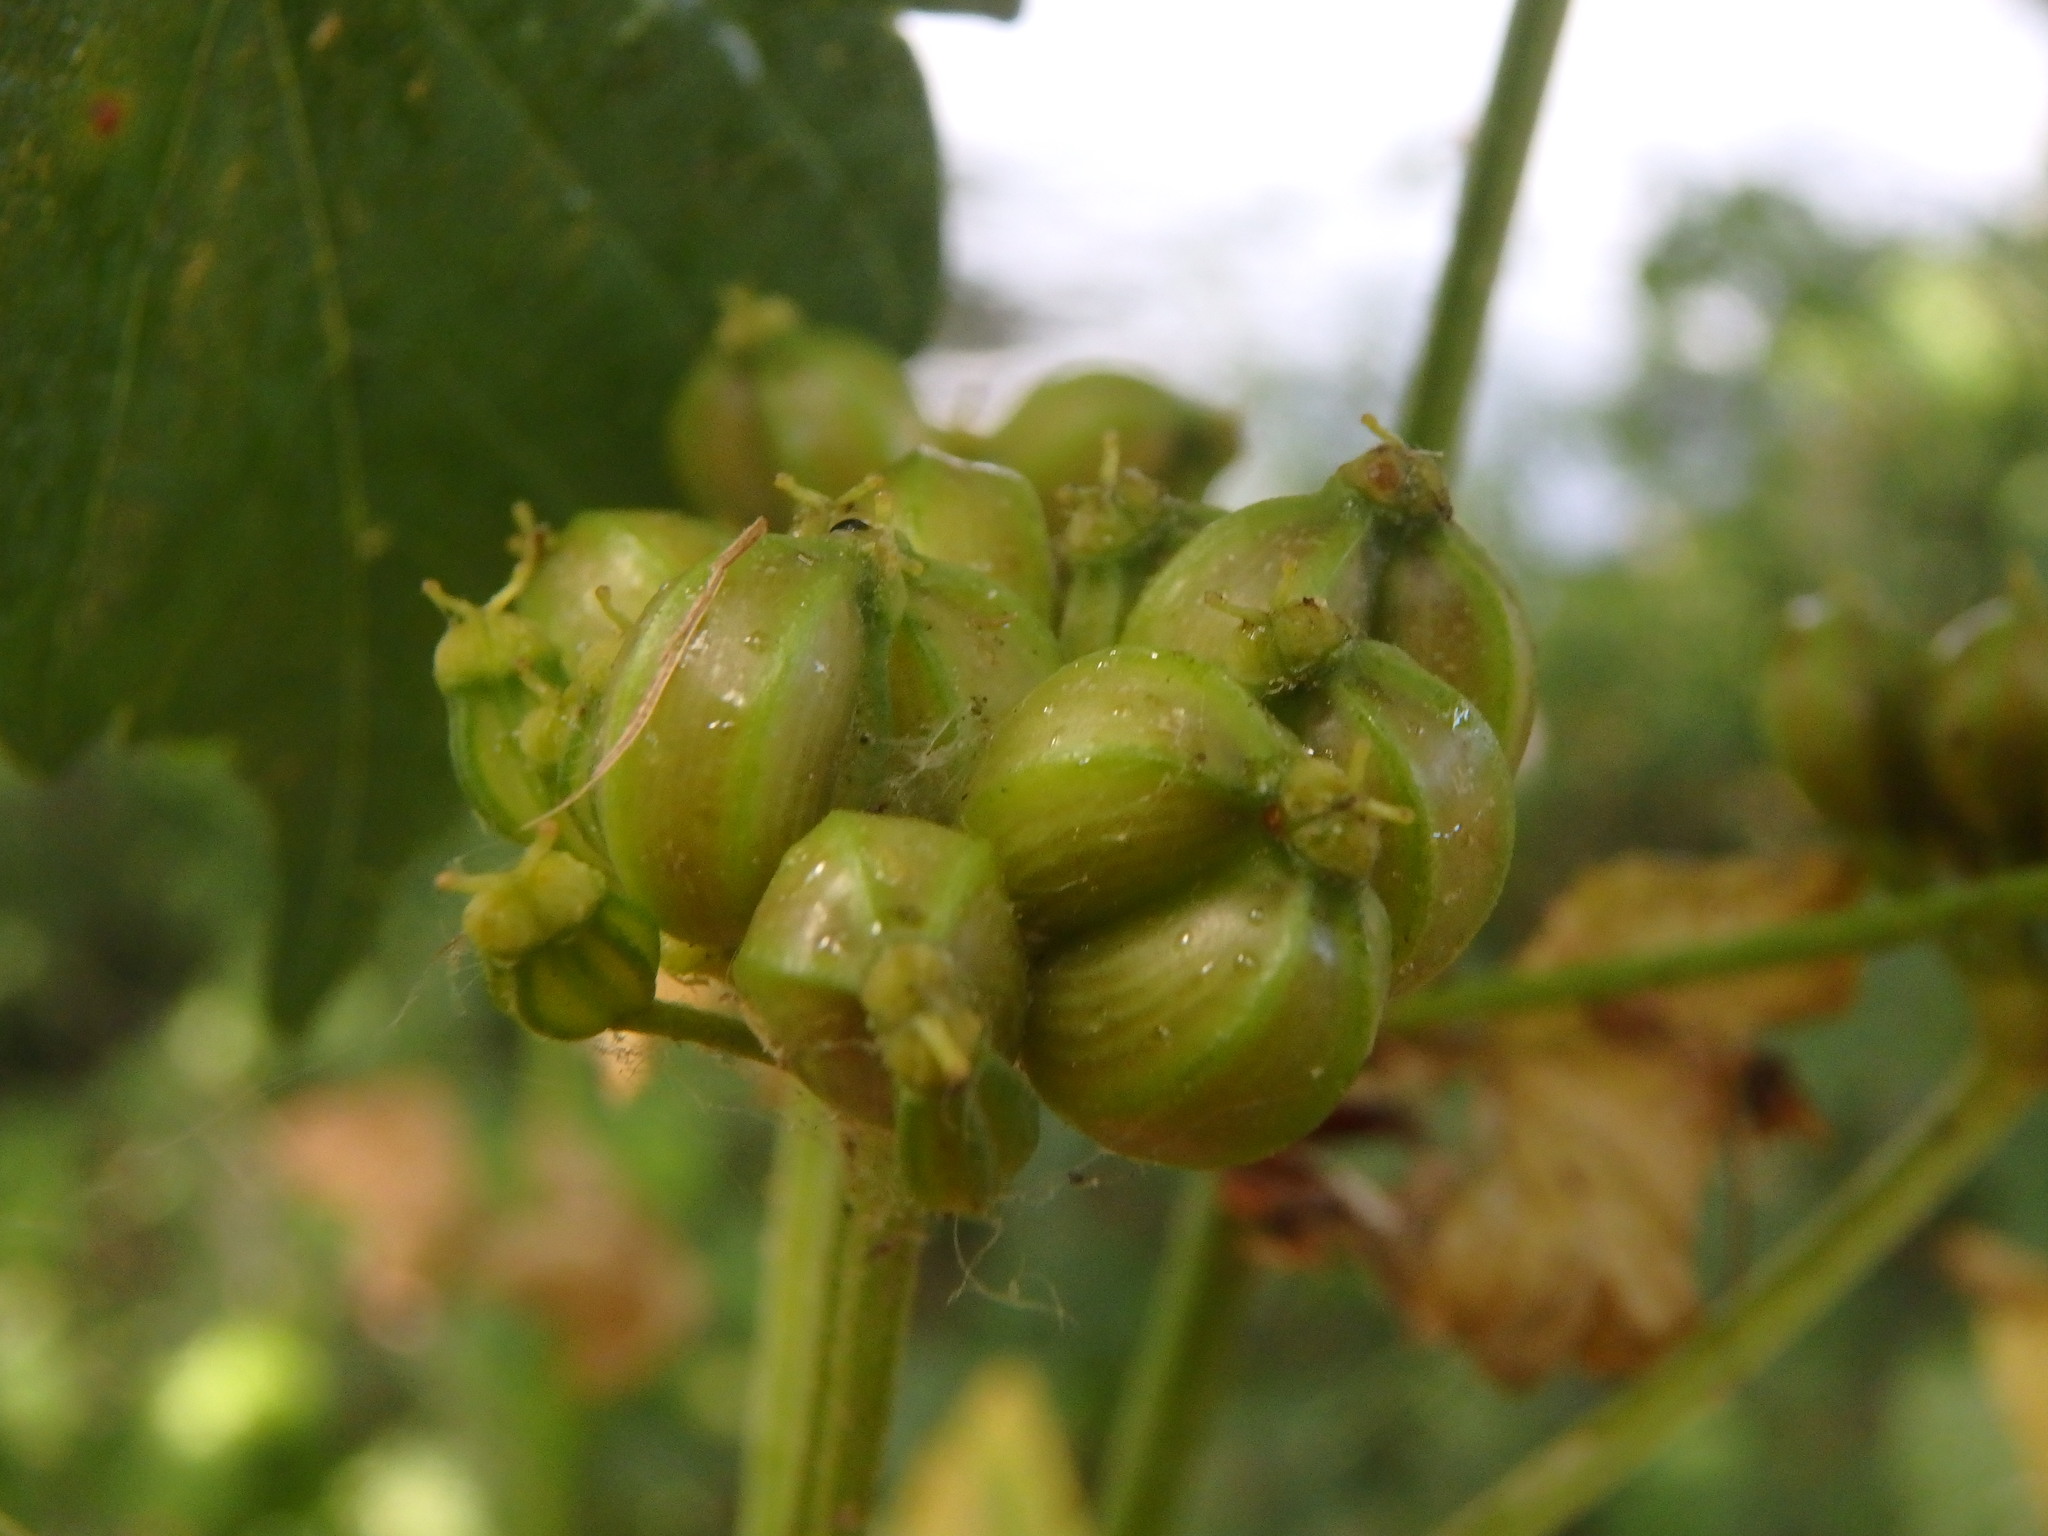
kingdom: Plantae
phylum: Tracheophyta
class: Magnoliopsida
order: Apiales
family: Apiaceae
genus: Smyrnium
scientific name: Smyrnium olusatrum
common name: Alexanders
